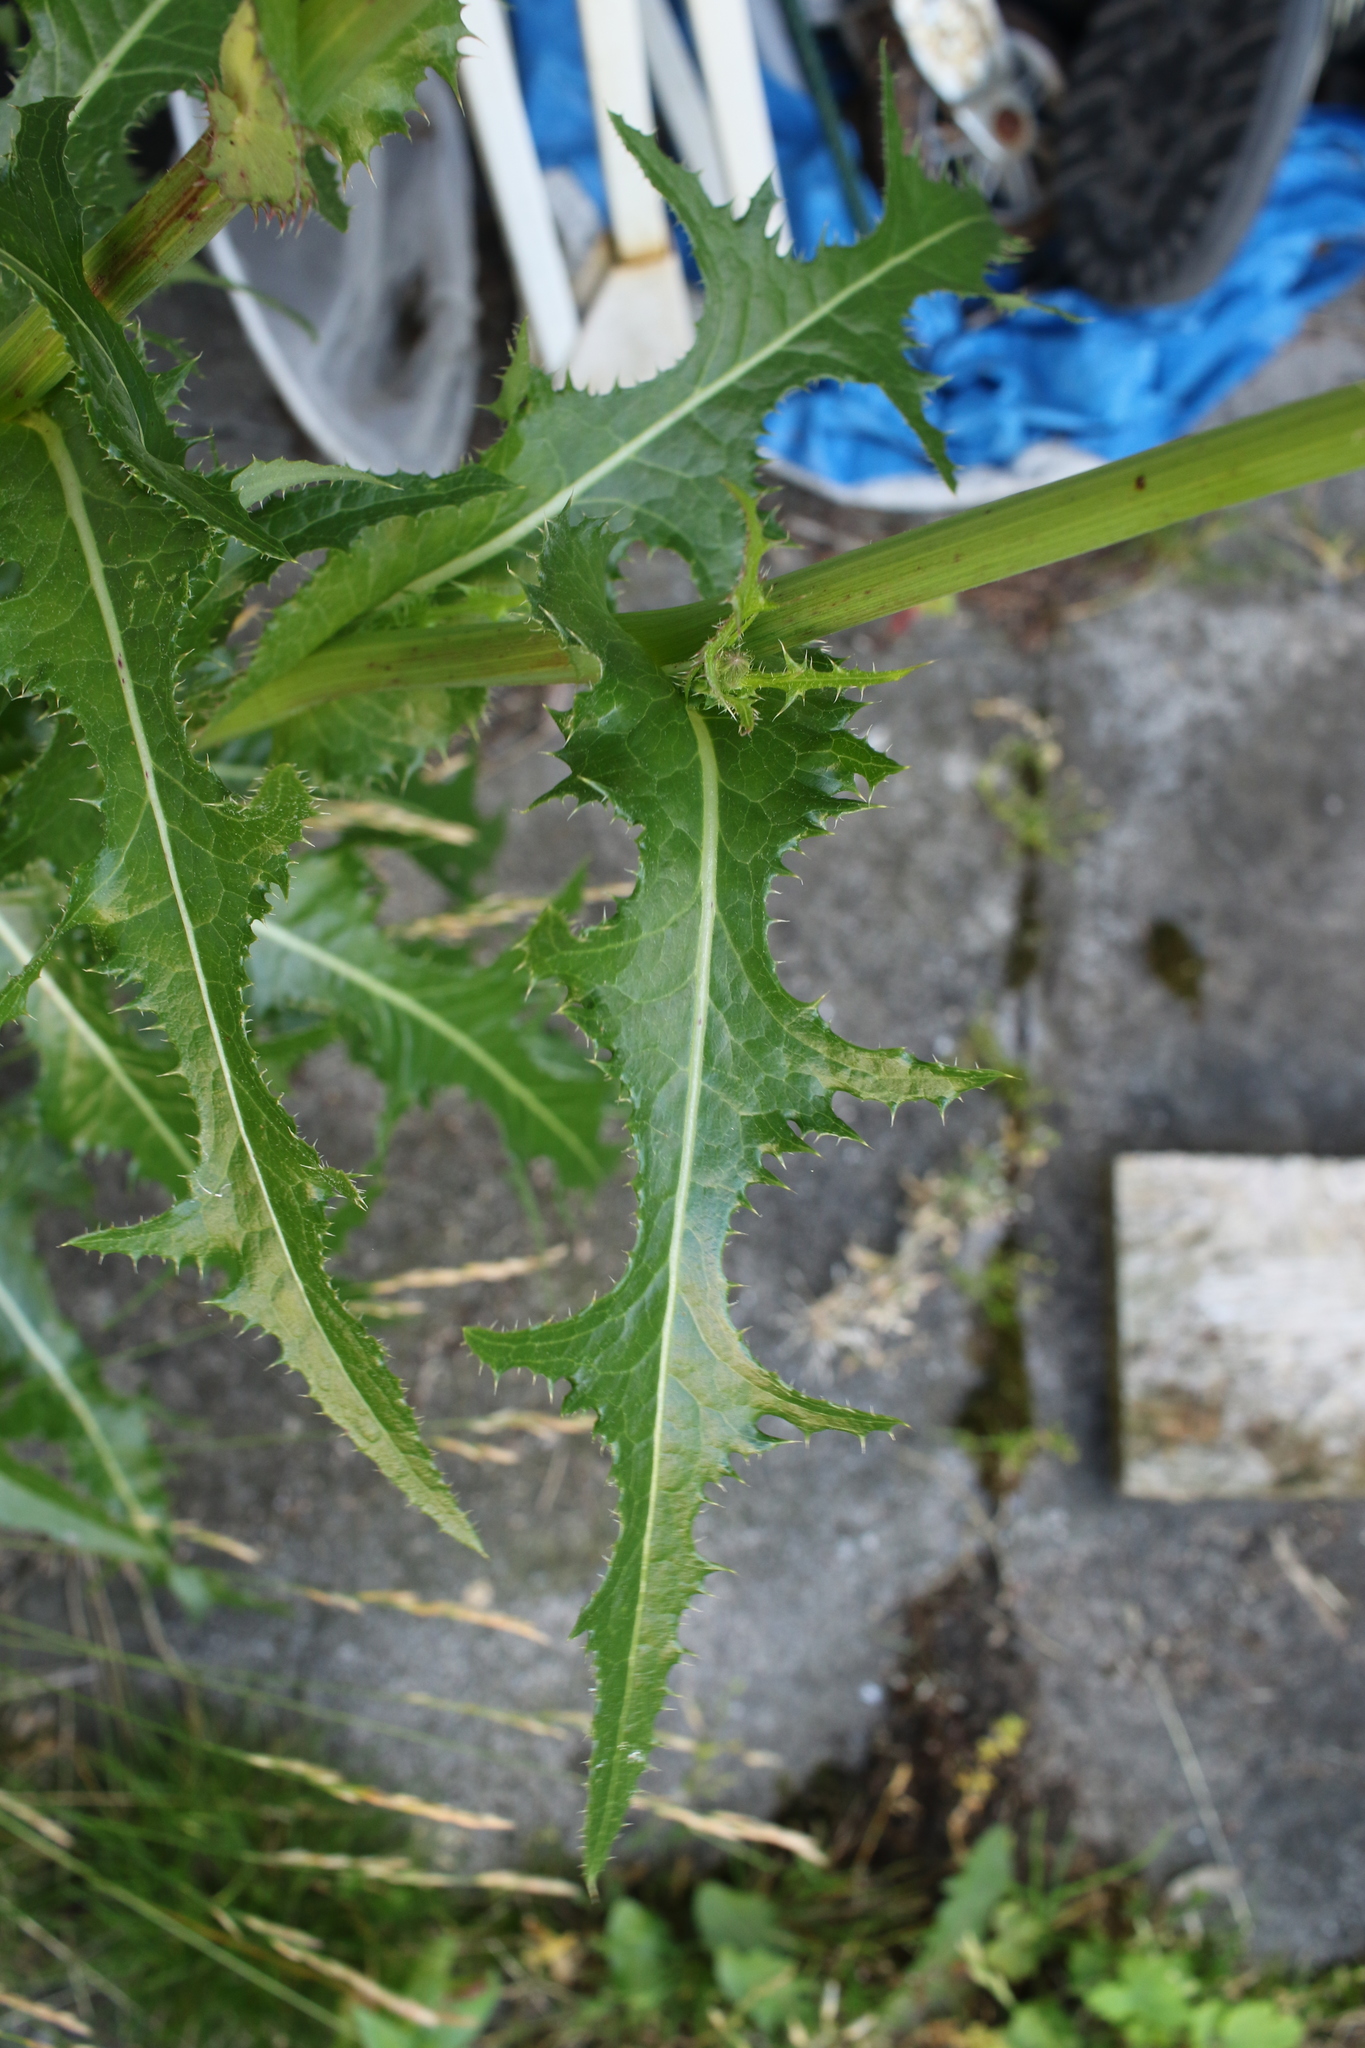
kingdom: Plantae
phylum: Tracheophyta
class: Magnoliopsida
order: Asterales
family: Asteraceae
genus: Sonchus
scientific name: Sonchus arvensis
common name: Perennial sow-thistle
